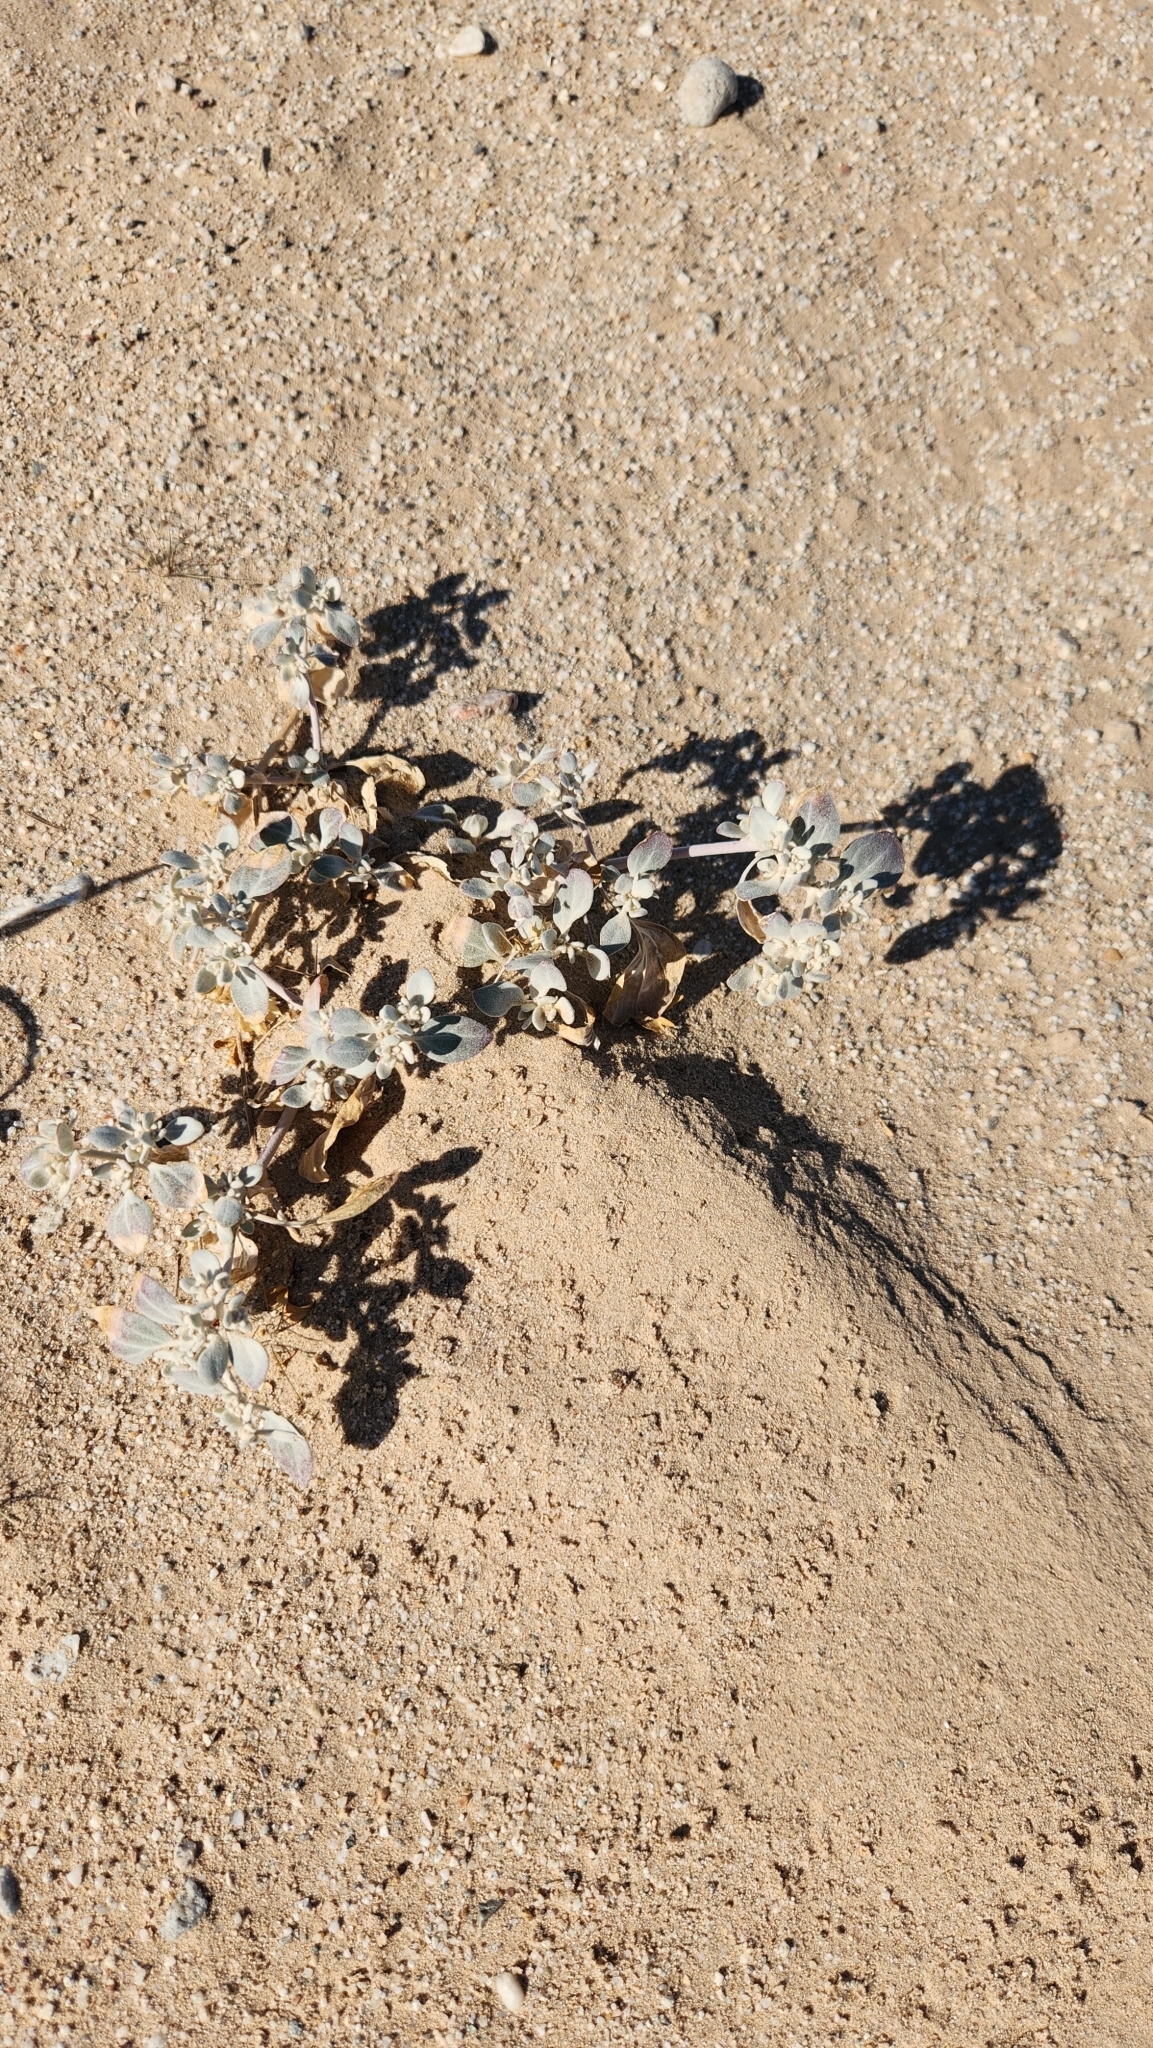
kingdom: Plantae
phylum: Tracheophyta
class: Magnoliopsida
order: Caryophyllales
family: Amaranthaceae
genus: Tidestromia
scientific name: Tidestromia suffruticosa
